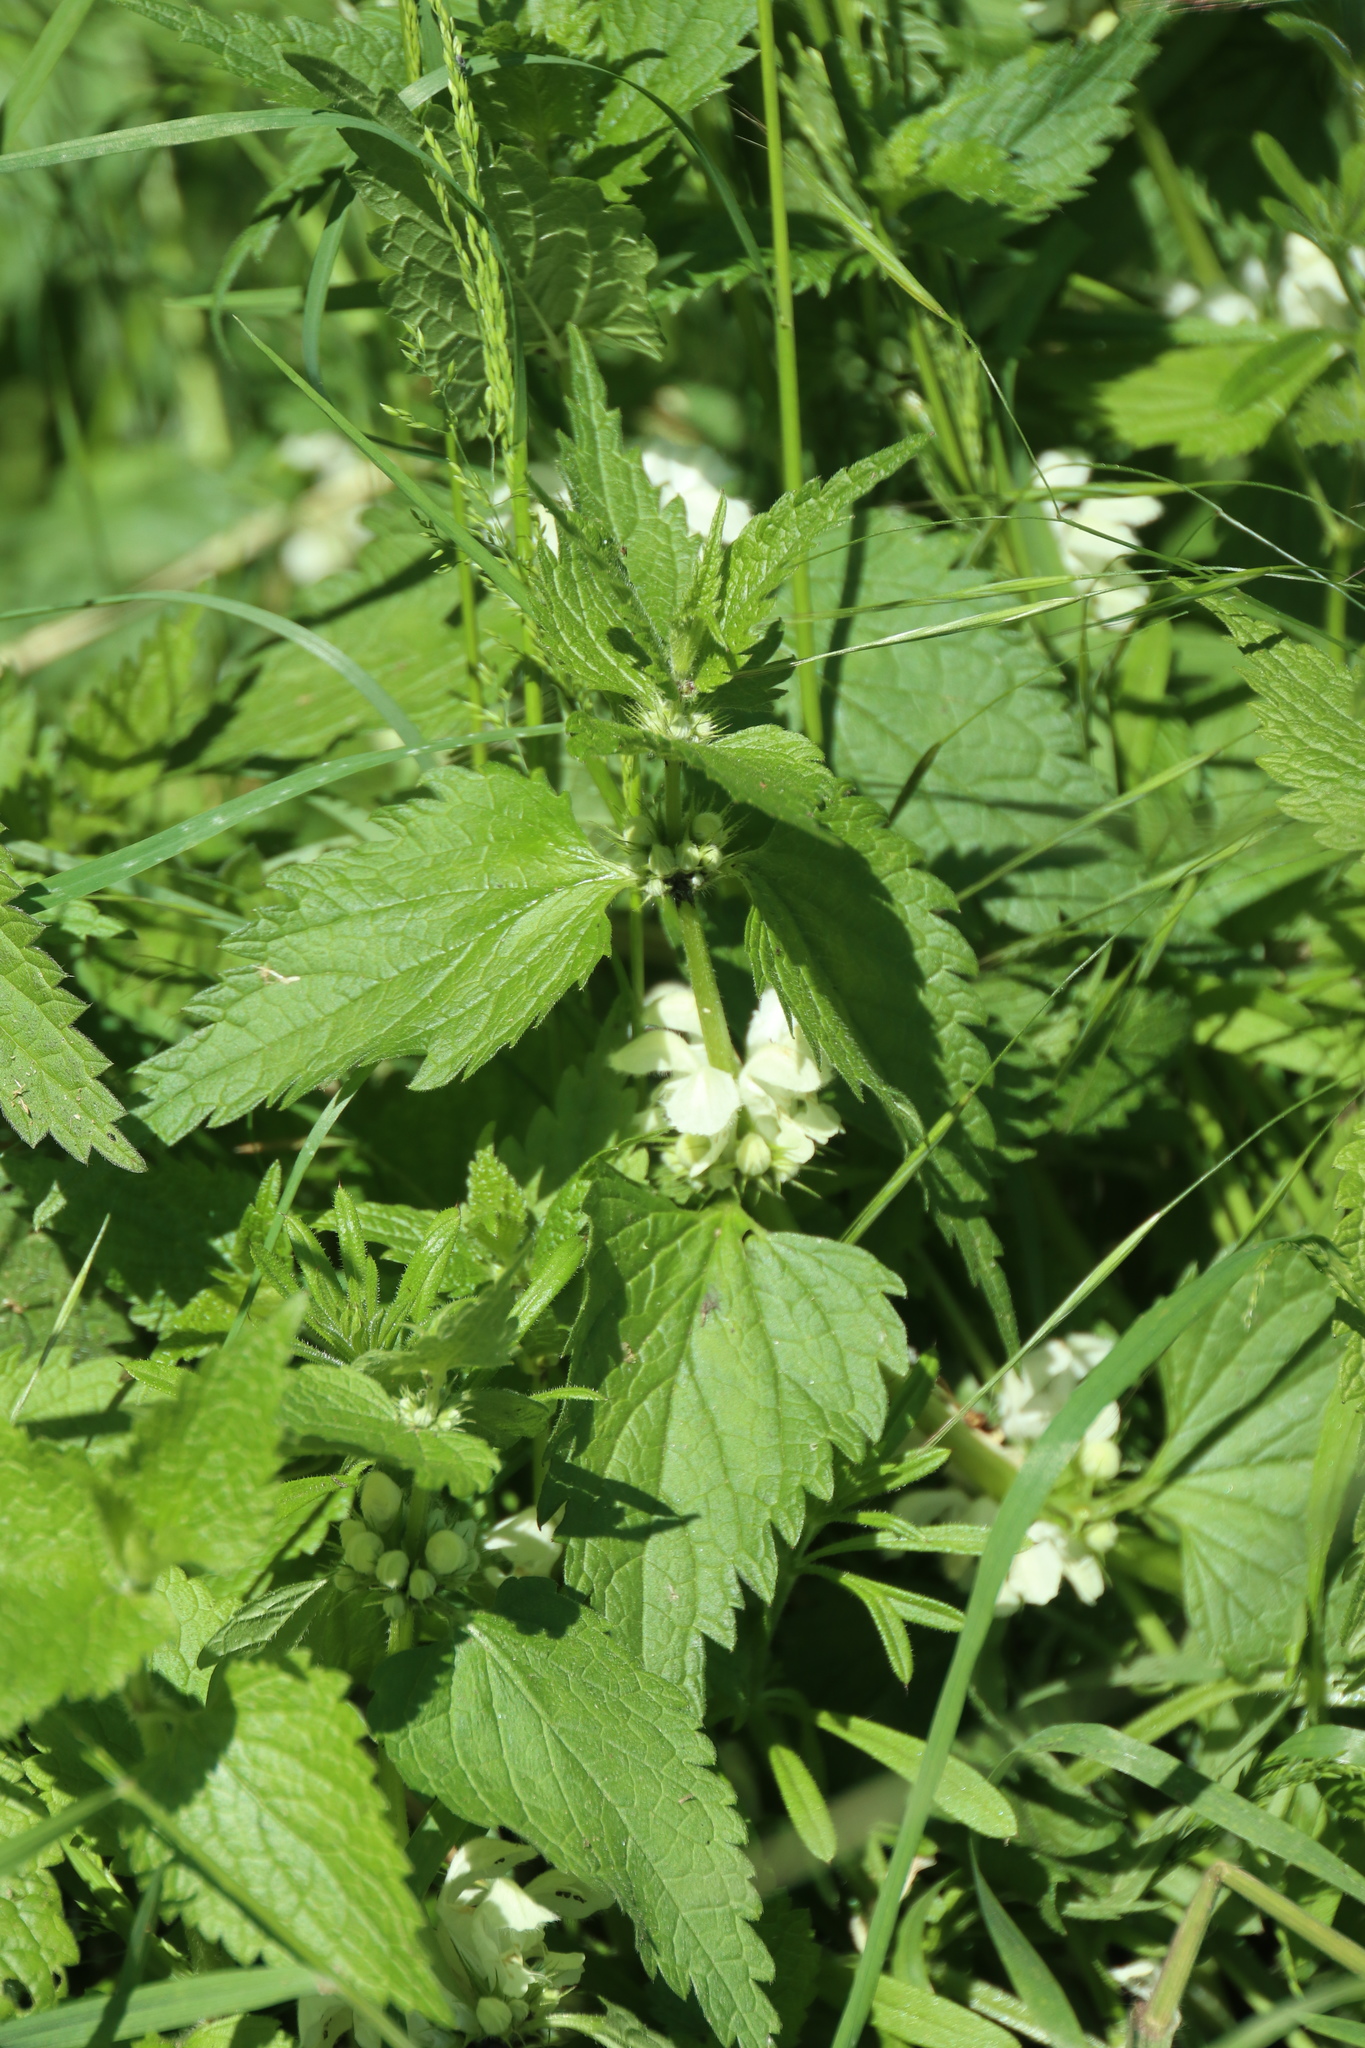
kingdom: Plantae
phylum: Tracheophyta
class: Magnoliopsida
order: Lamiales
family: Lamiaceae
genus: Lamium
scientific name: Lamium album
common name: White dead-nettle
